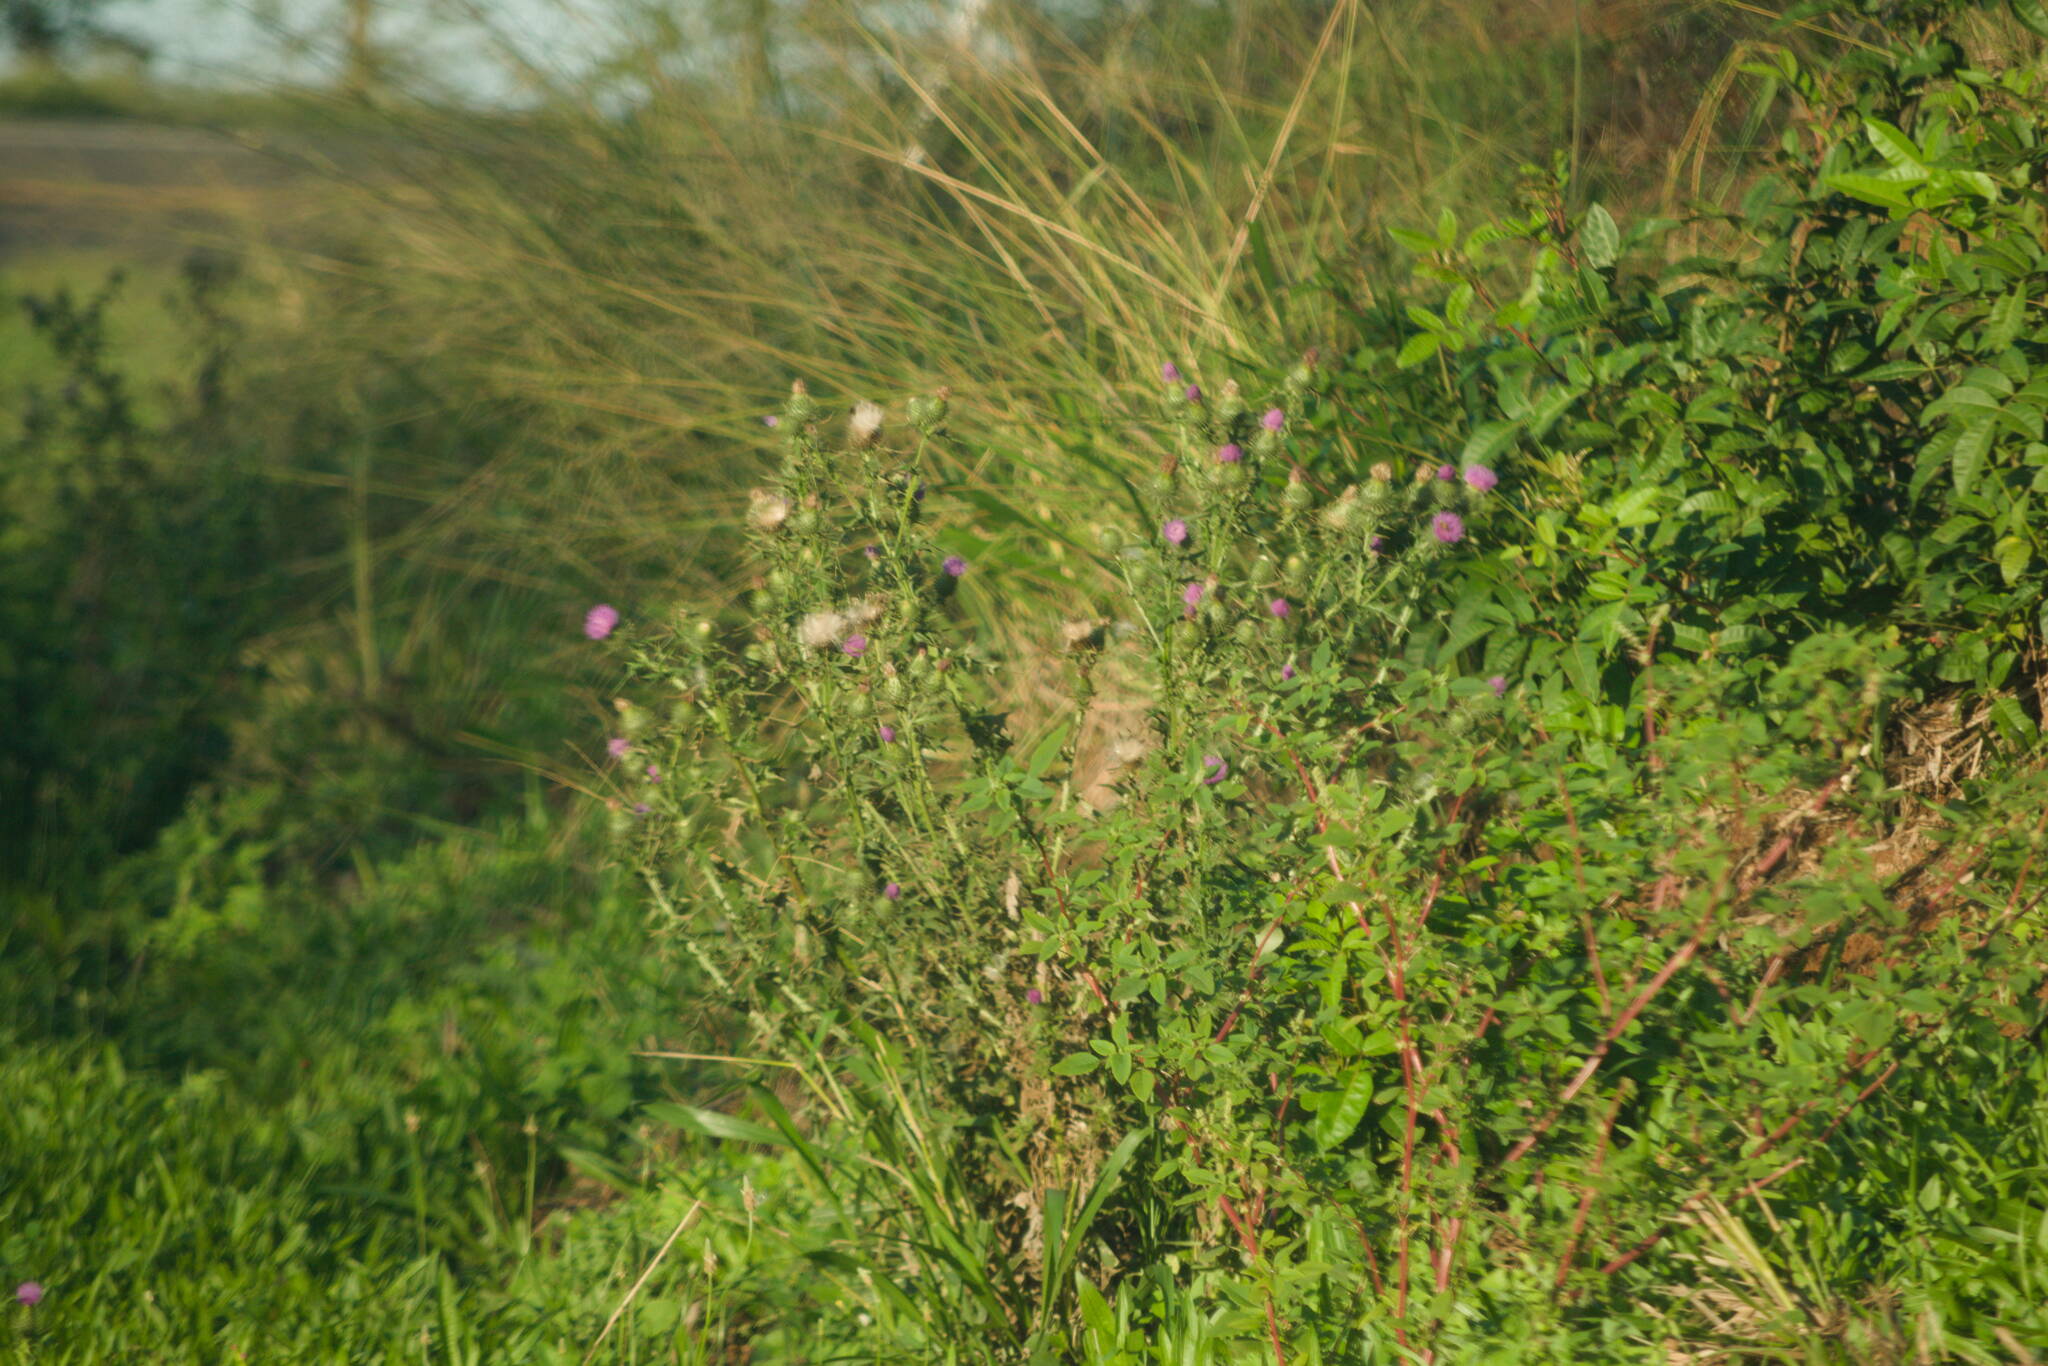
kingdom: Plantae
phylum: Tracheophyta
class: Magnoliopsida
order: Asterales
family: Asteraceae
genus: Cirsium
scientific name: Cirsium vulgare
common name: Bull thistle
